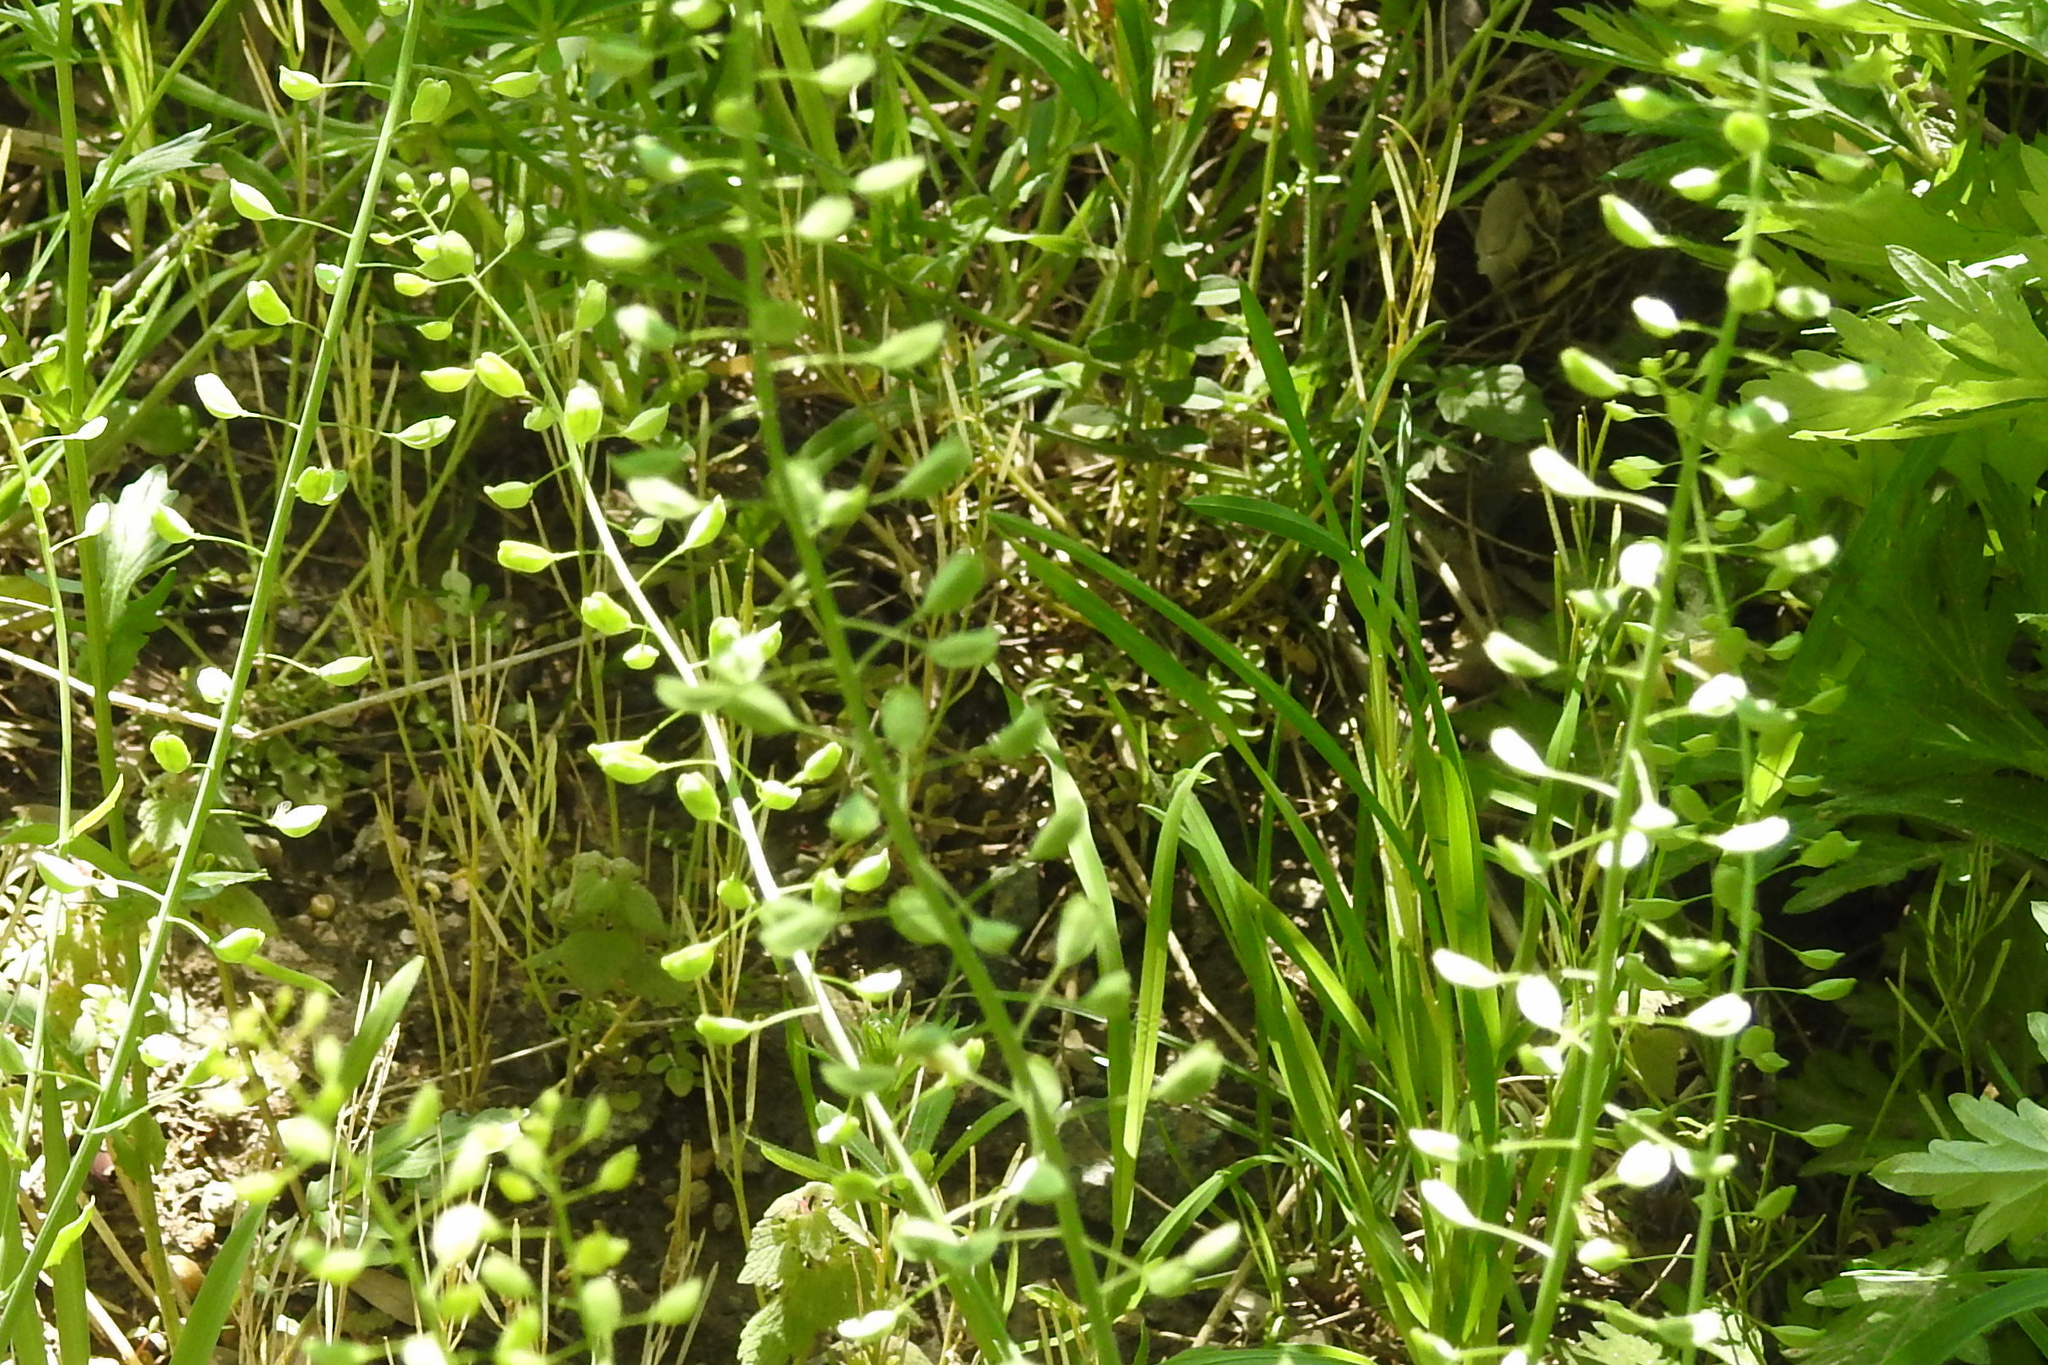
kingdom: Plantae
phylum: Tracheophyta
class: Magnoliopsida
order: Brassicales
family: Brassicaceae
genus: Mummenhoffia
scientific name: Mummenhoffia alliacea
